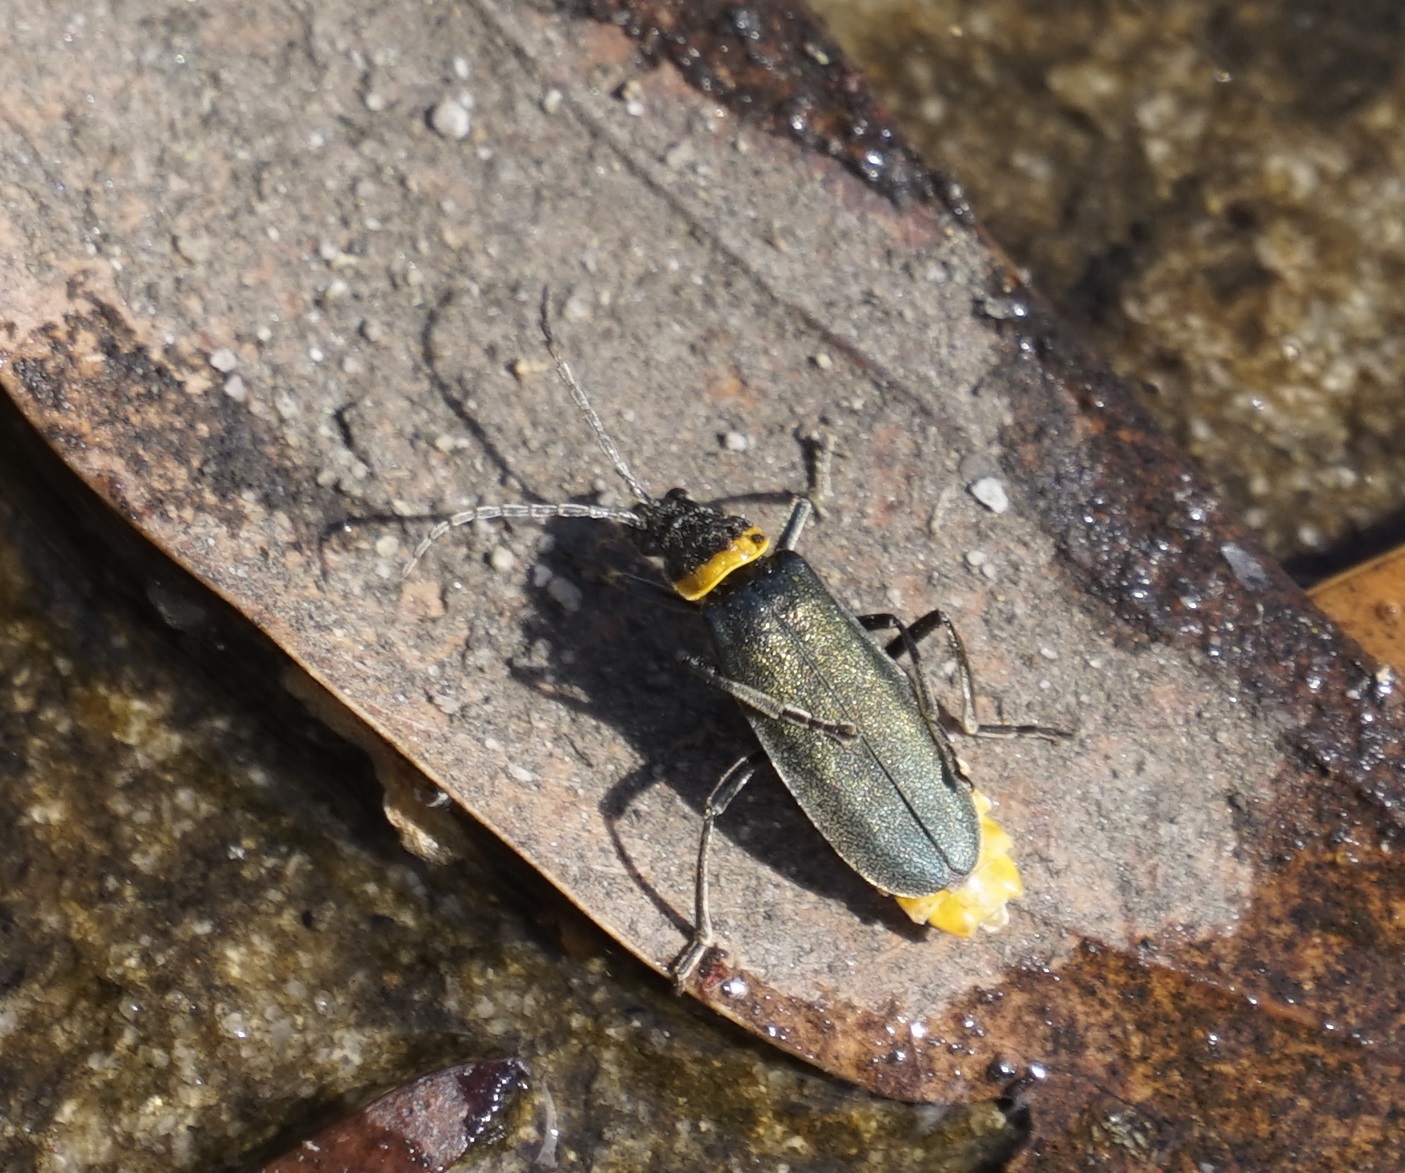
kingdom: Animalia
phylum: Arthropoda
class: Insecta
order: Coleoptera
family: Cantharidae
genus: Chauliognathus
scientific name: Chauliognathus
